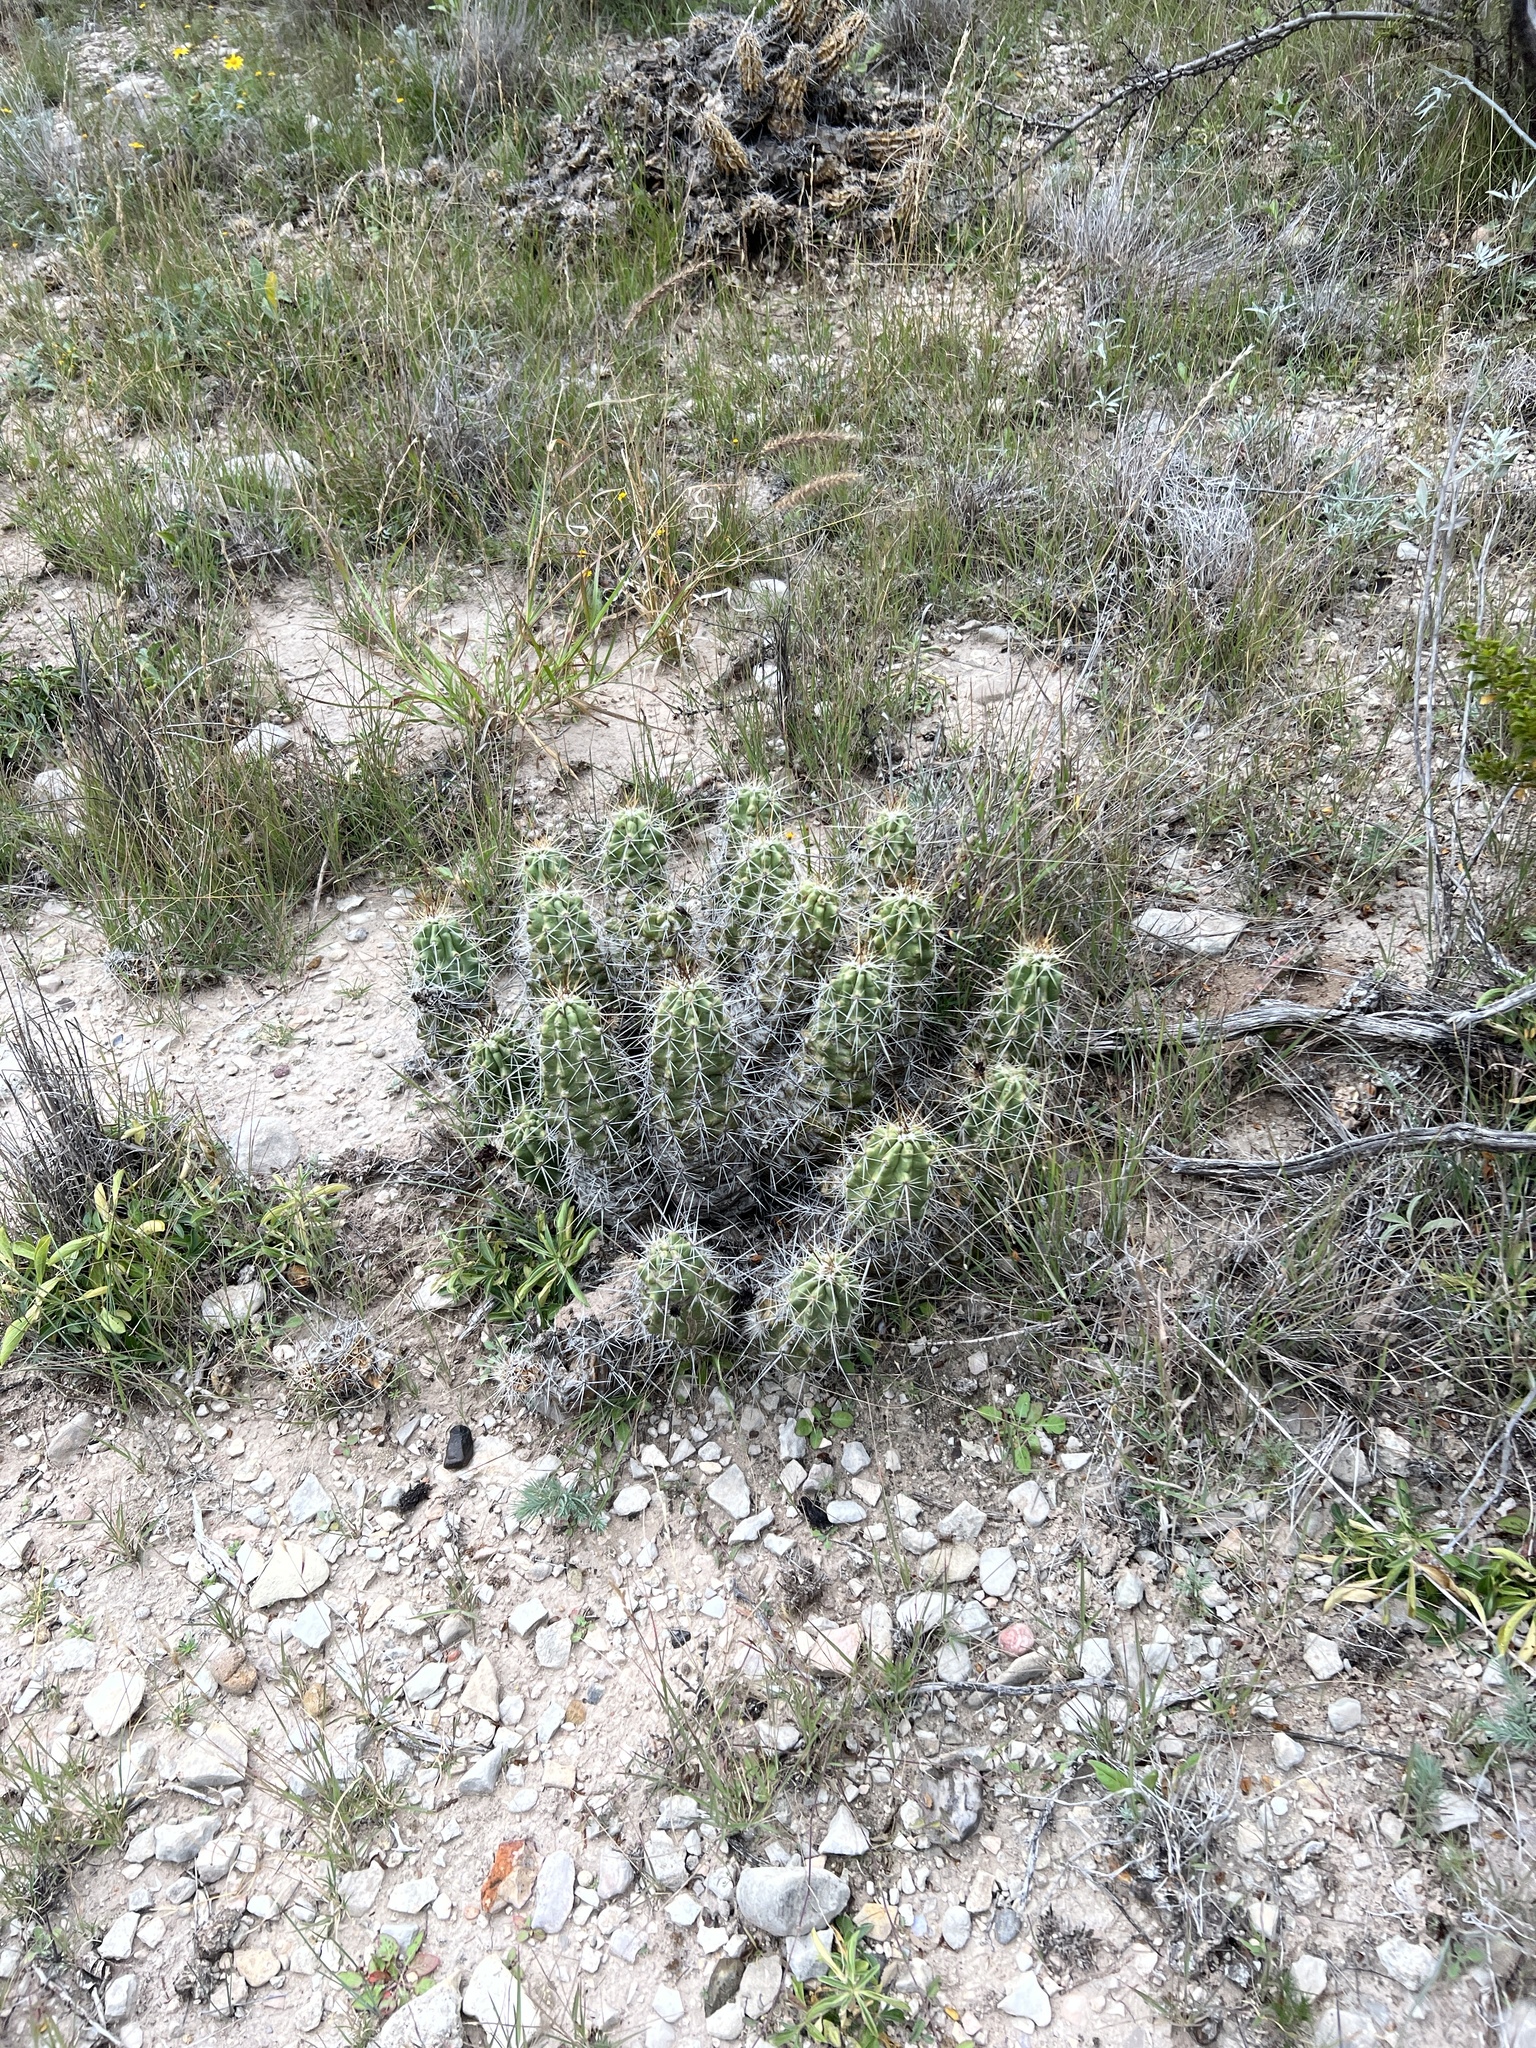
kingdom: Plantae
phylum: Tracheophyta
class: Magnoliopsida
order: Caryophyllales
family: Cactaceae
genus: Echinocereus
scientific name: Echinocereus enneacanthus
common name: Pitaya
